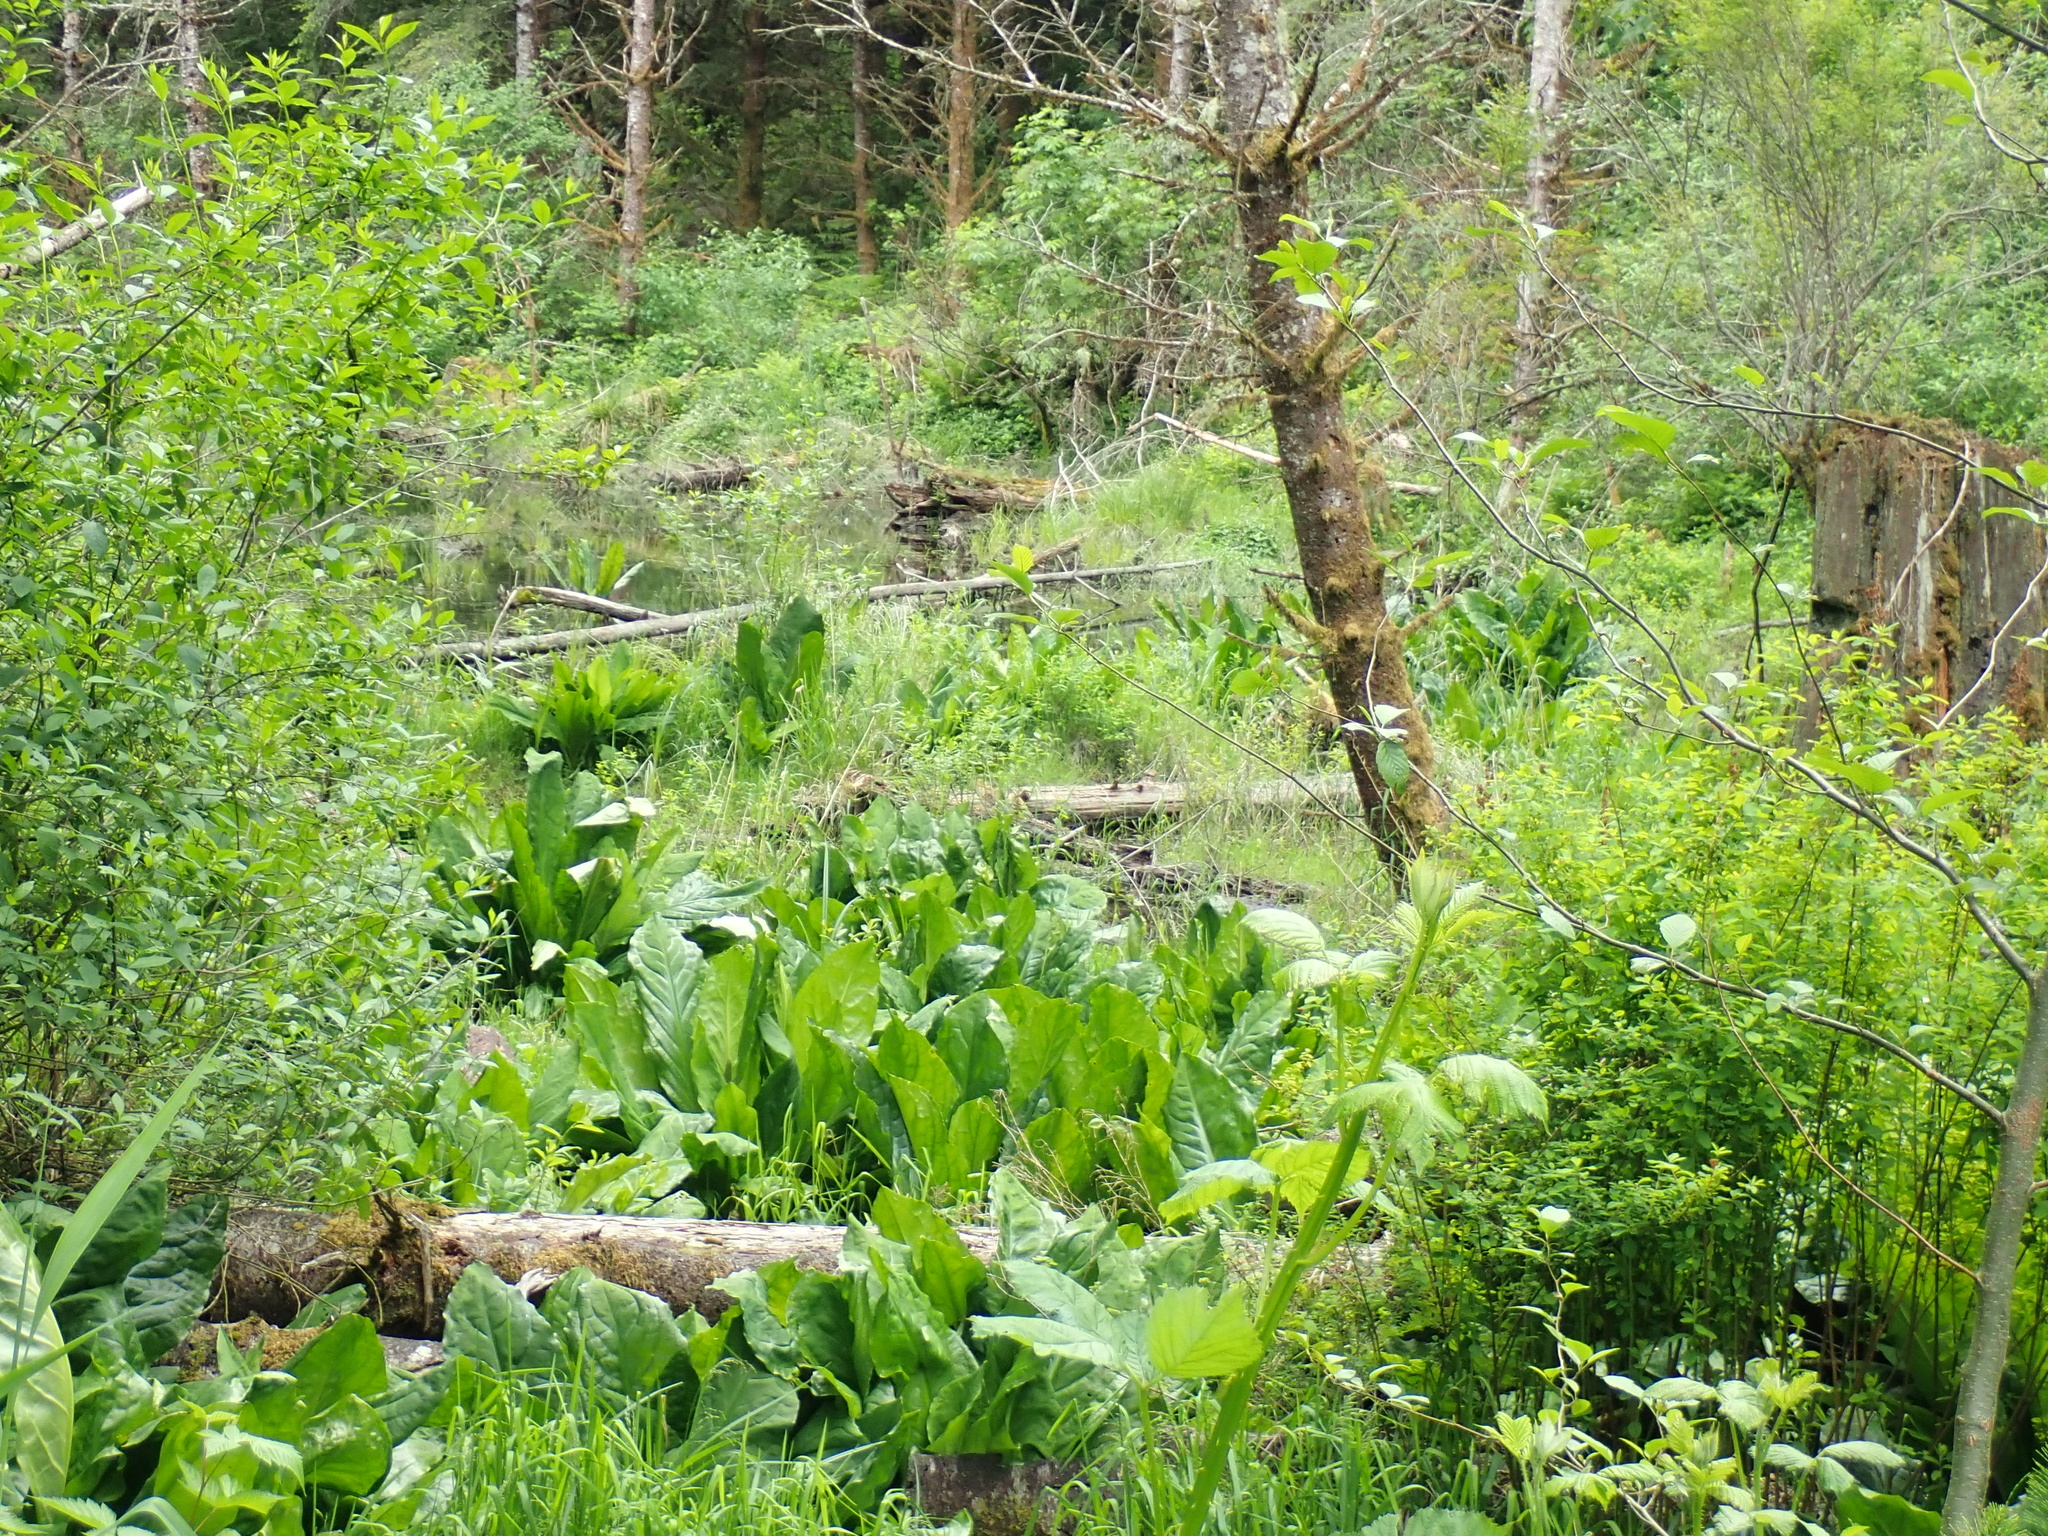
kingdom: Plantae
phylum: Tracheophyta
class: Liliopsida
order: Alismatales
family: Araceae
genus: Lysichiton
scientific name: Lysichiton americanus
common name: American skunk cabbage
